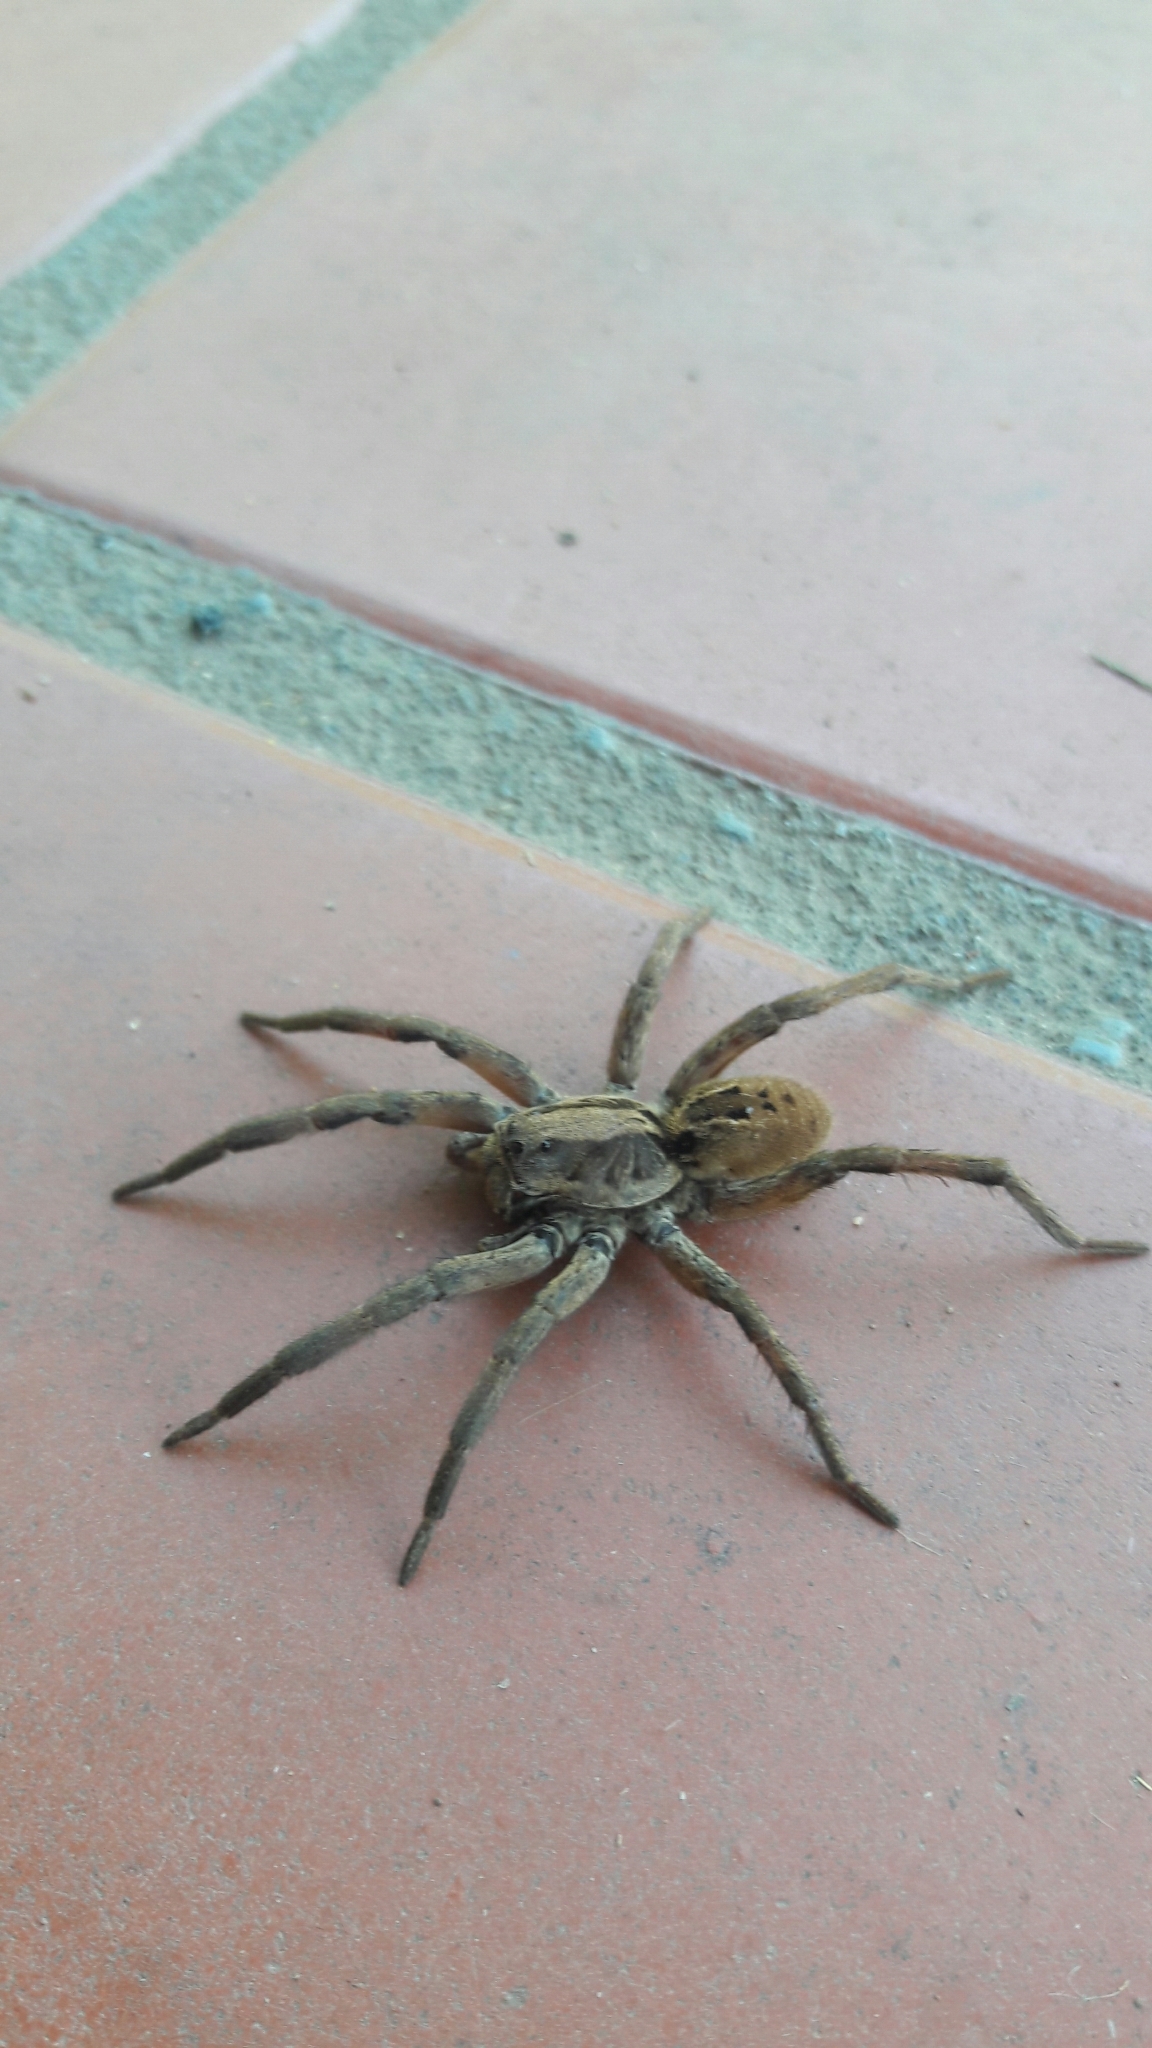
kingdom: Animalia
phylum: Arthropoda
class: Arachnida
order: Araneae
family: Lycosidae
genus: Lycosa
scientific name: Lycosa erythrognatha
